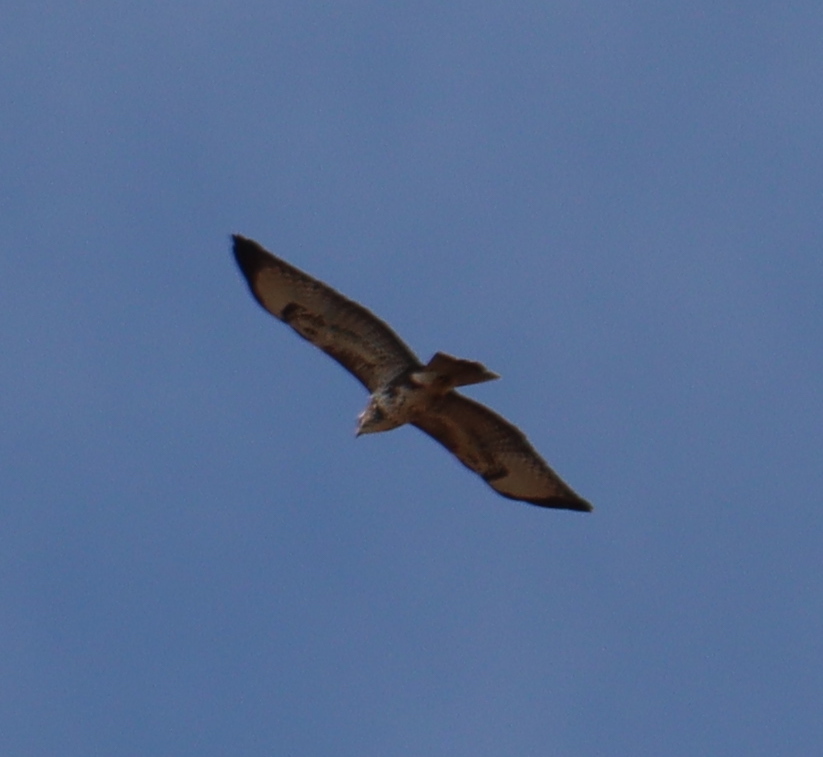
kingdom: Animalia
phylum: Chordata
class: Aves
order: Accipitriformes
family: Accipitridae
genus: Buteo
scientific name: Buteo buteo
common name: Common buzzard
